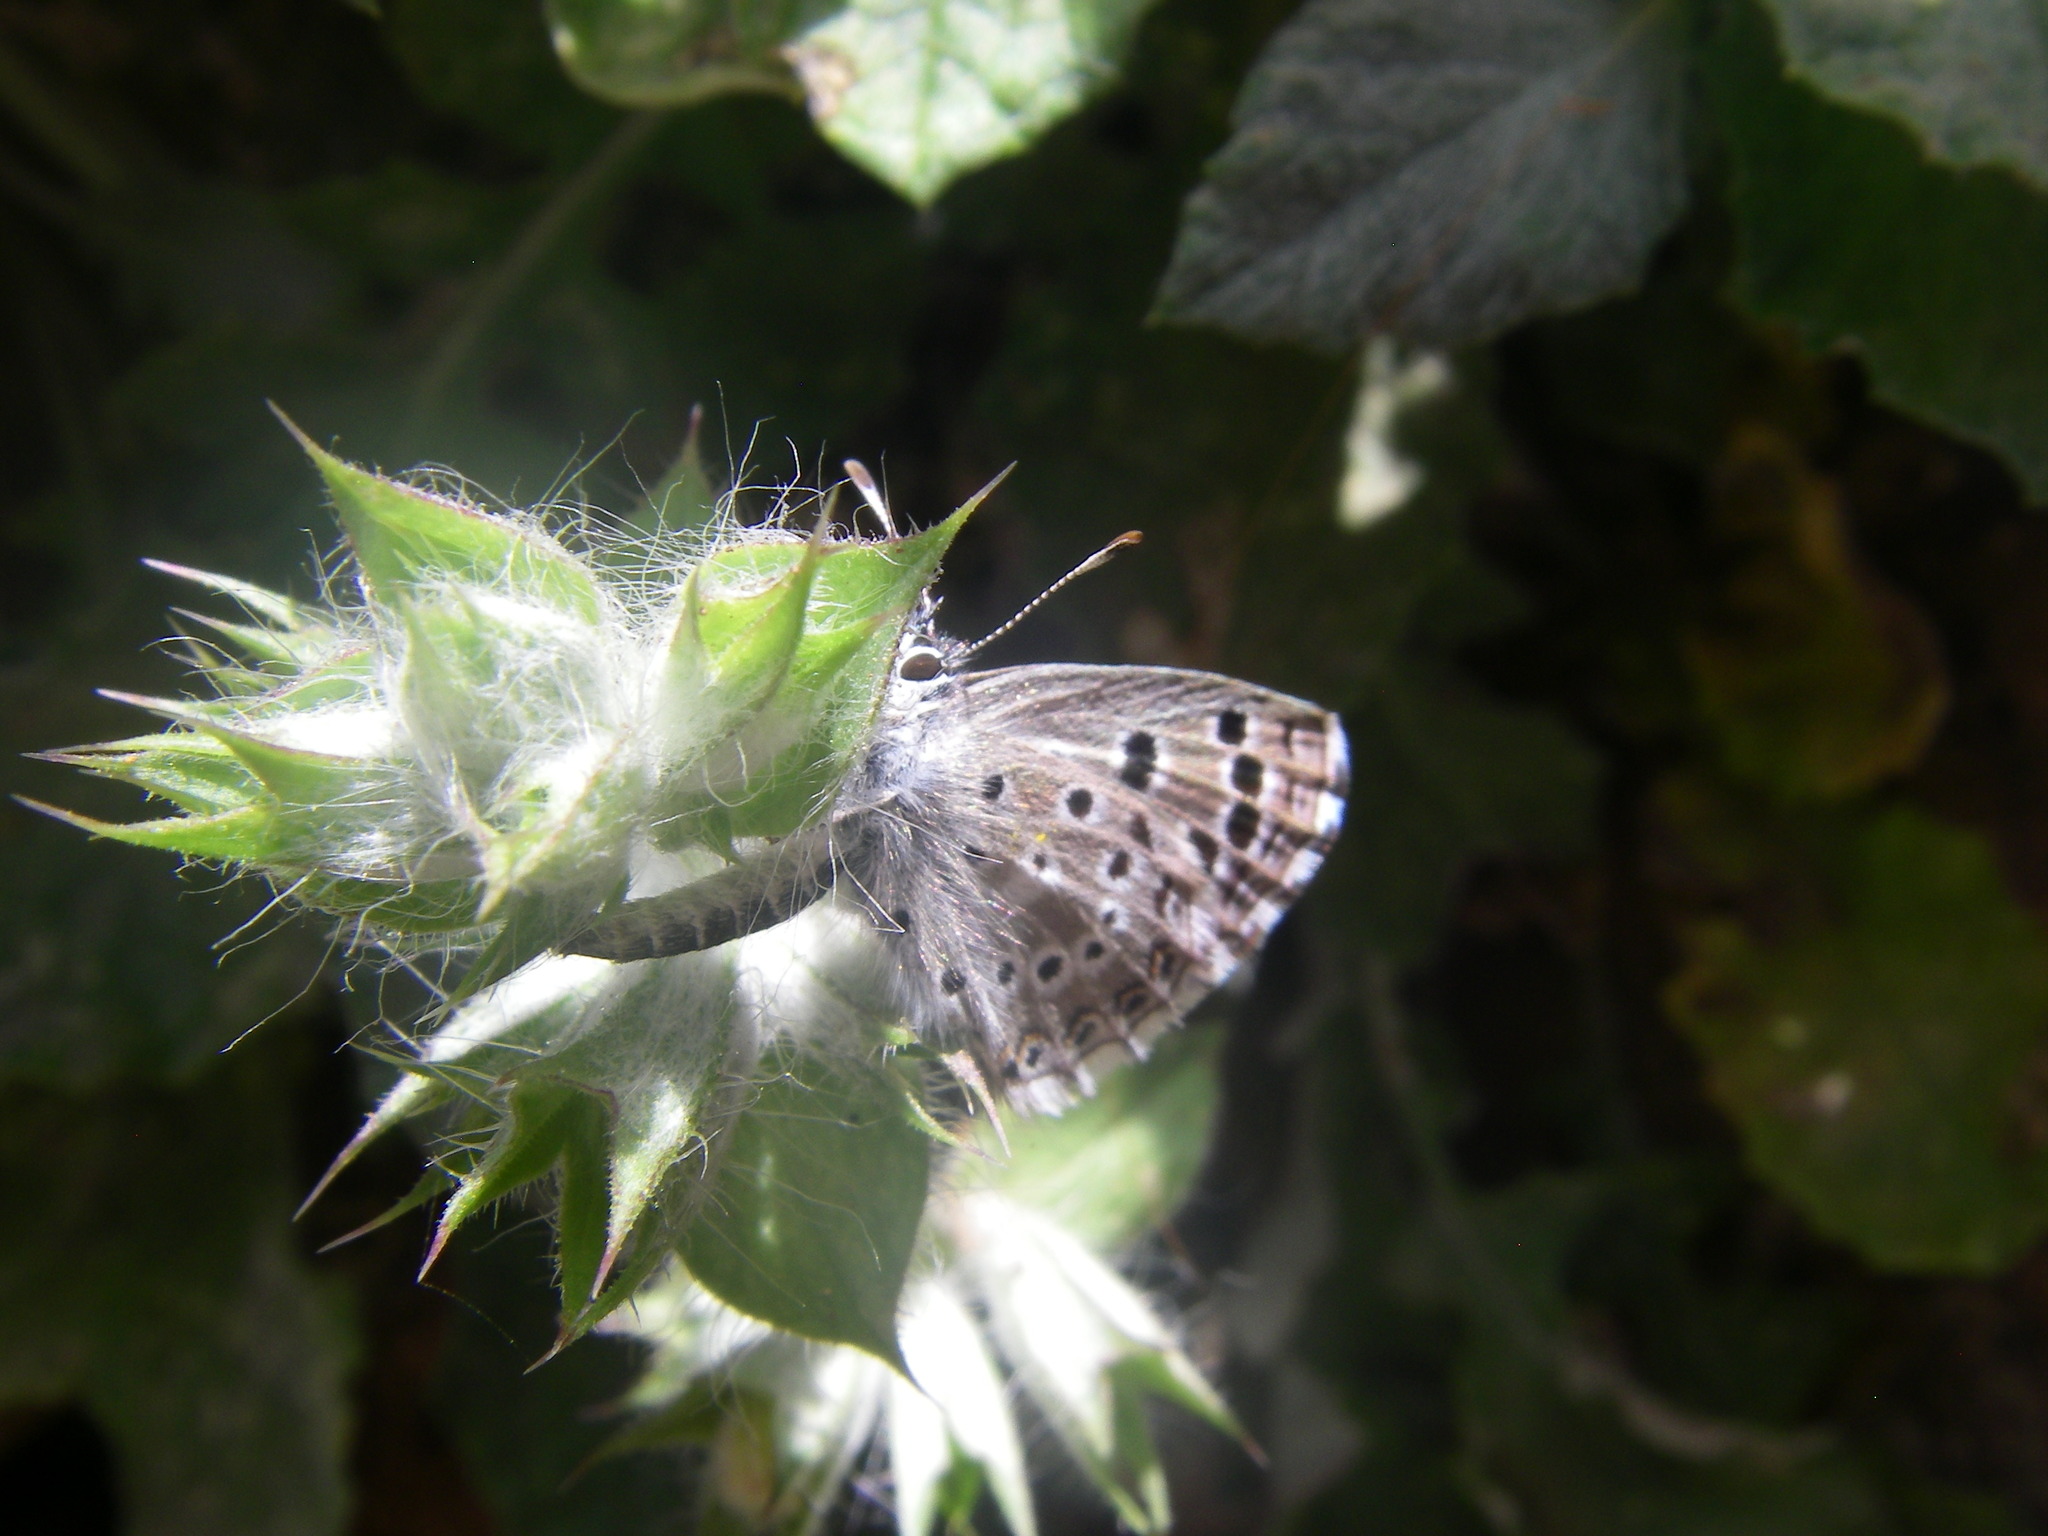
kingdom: Animalia
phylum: Arthropoda
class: Insecta
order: Lepidoptera
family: Lycaenidae
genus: Pseudophilotes
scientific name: Pseudophilotes abencerragus
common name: False baton blue
